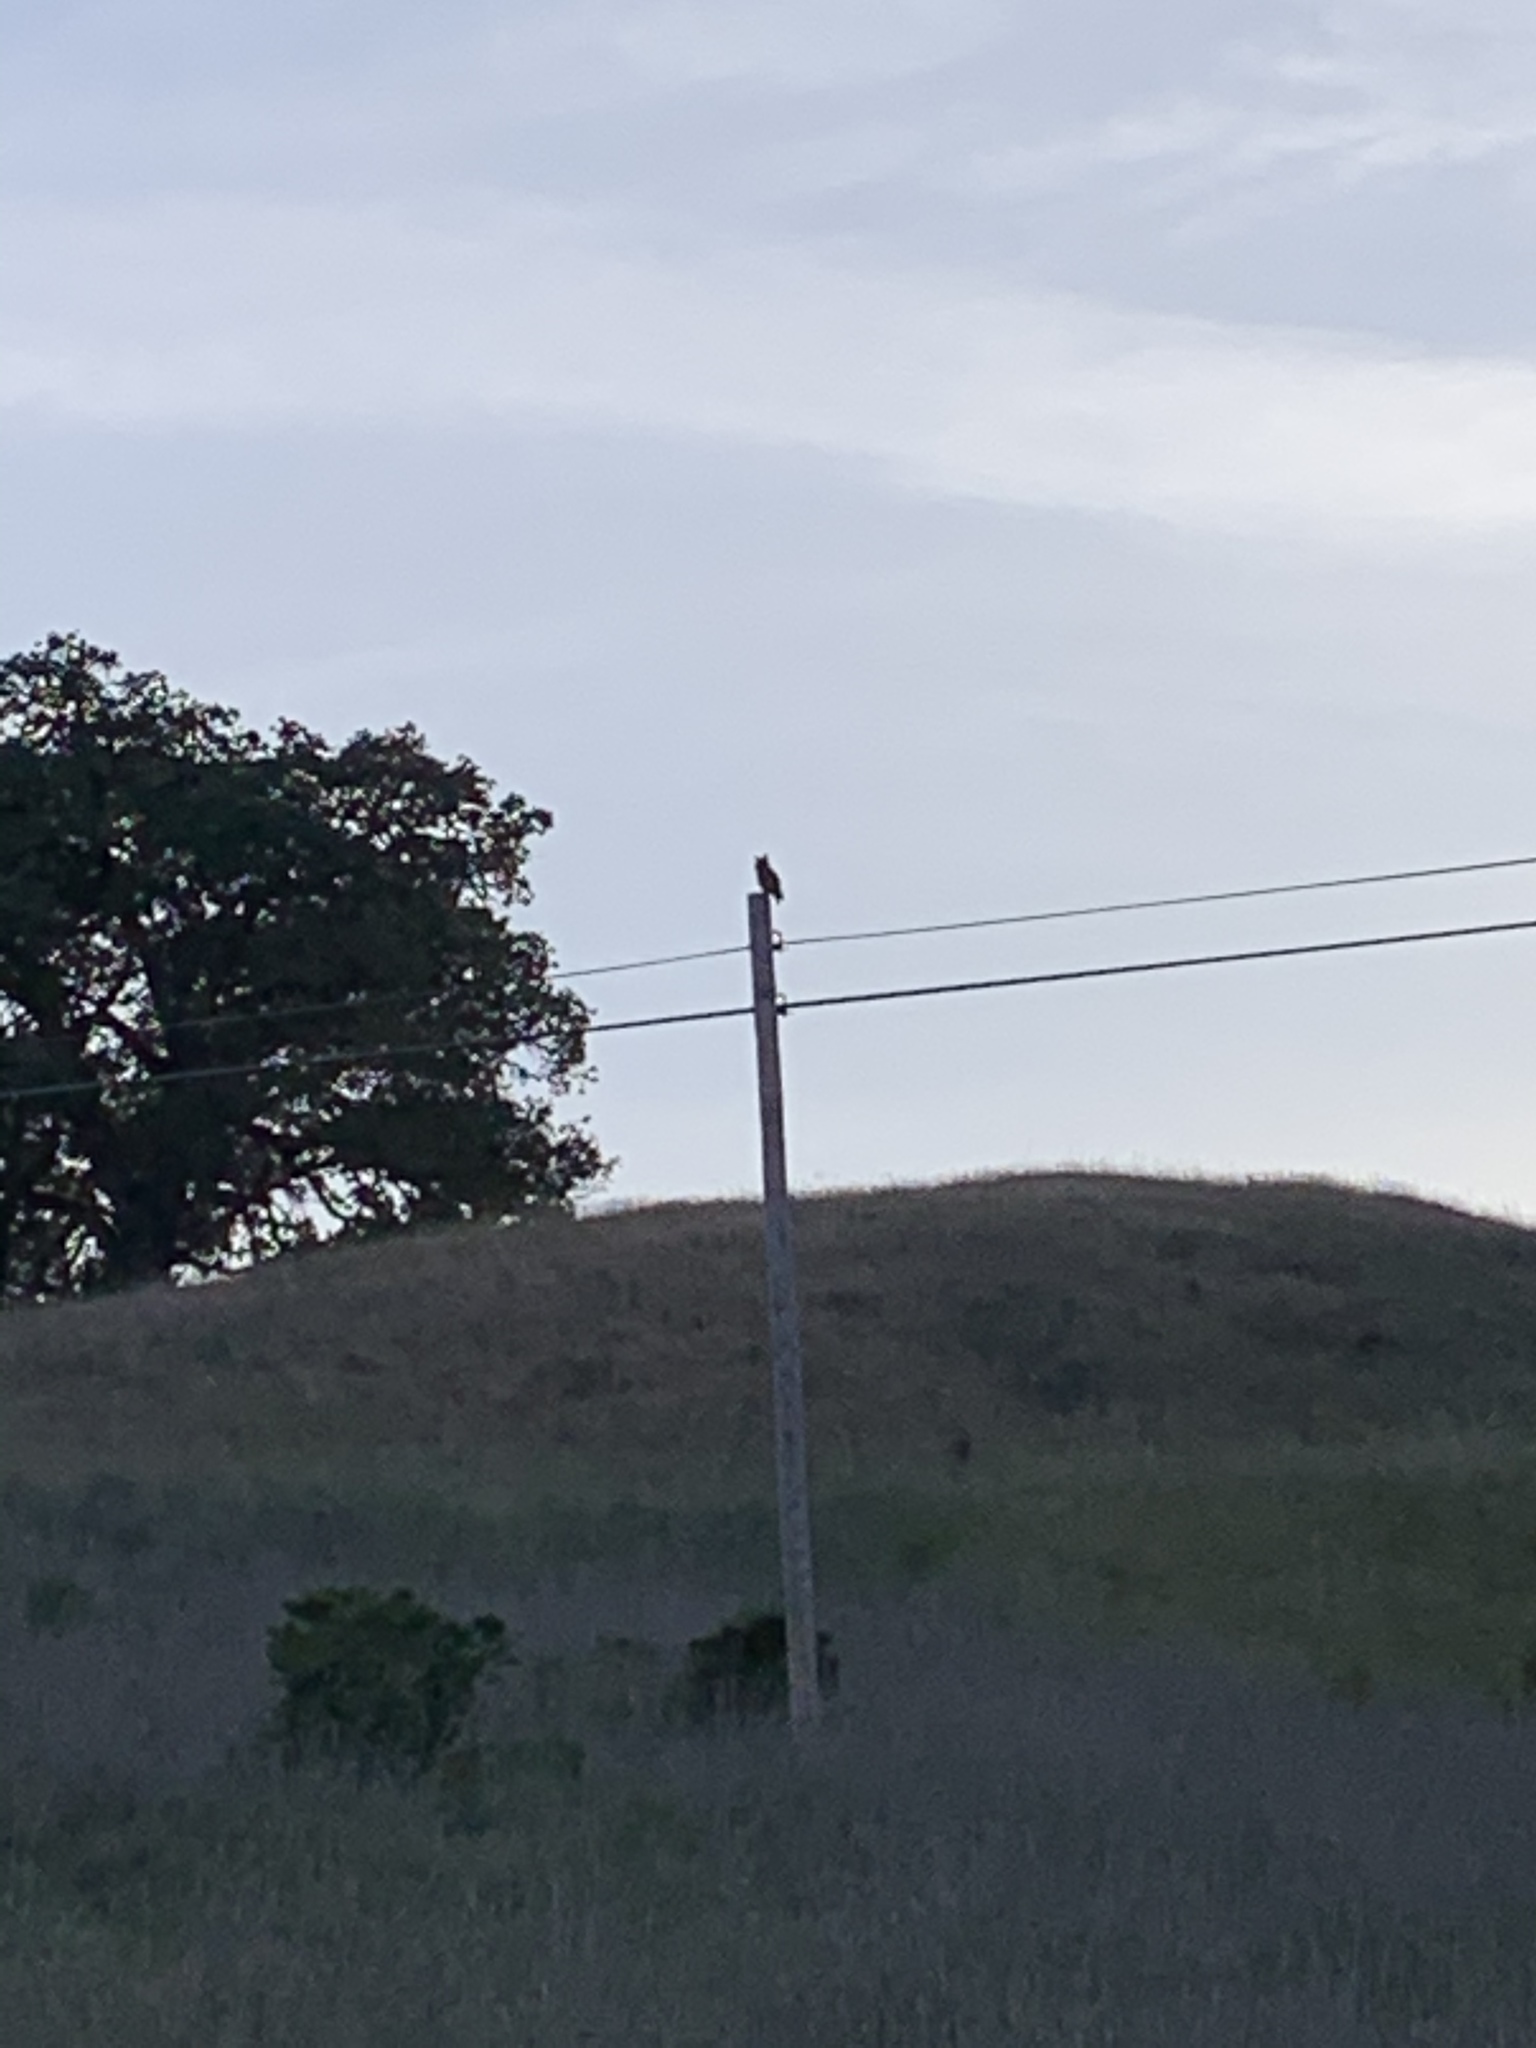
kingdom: Animalia
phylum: Chordata
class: Aves
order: Strigiformes
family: Strigidae
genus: Bubo
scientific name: Bubo virginianus
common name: Great horned owl
